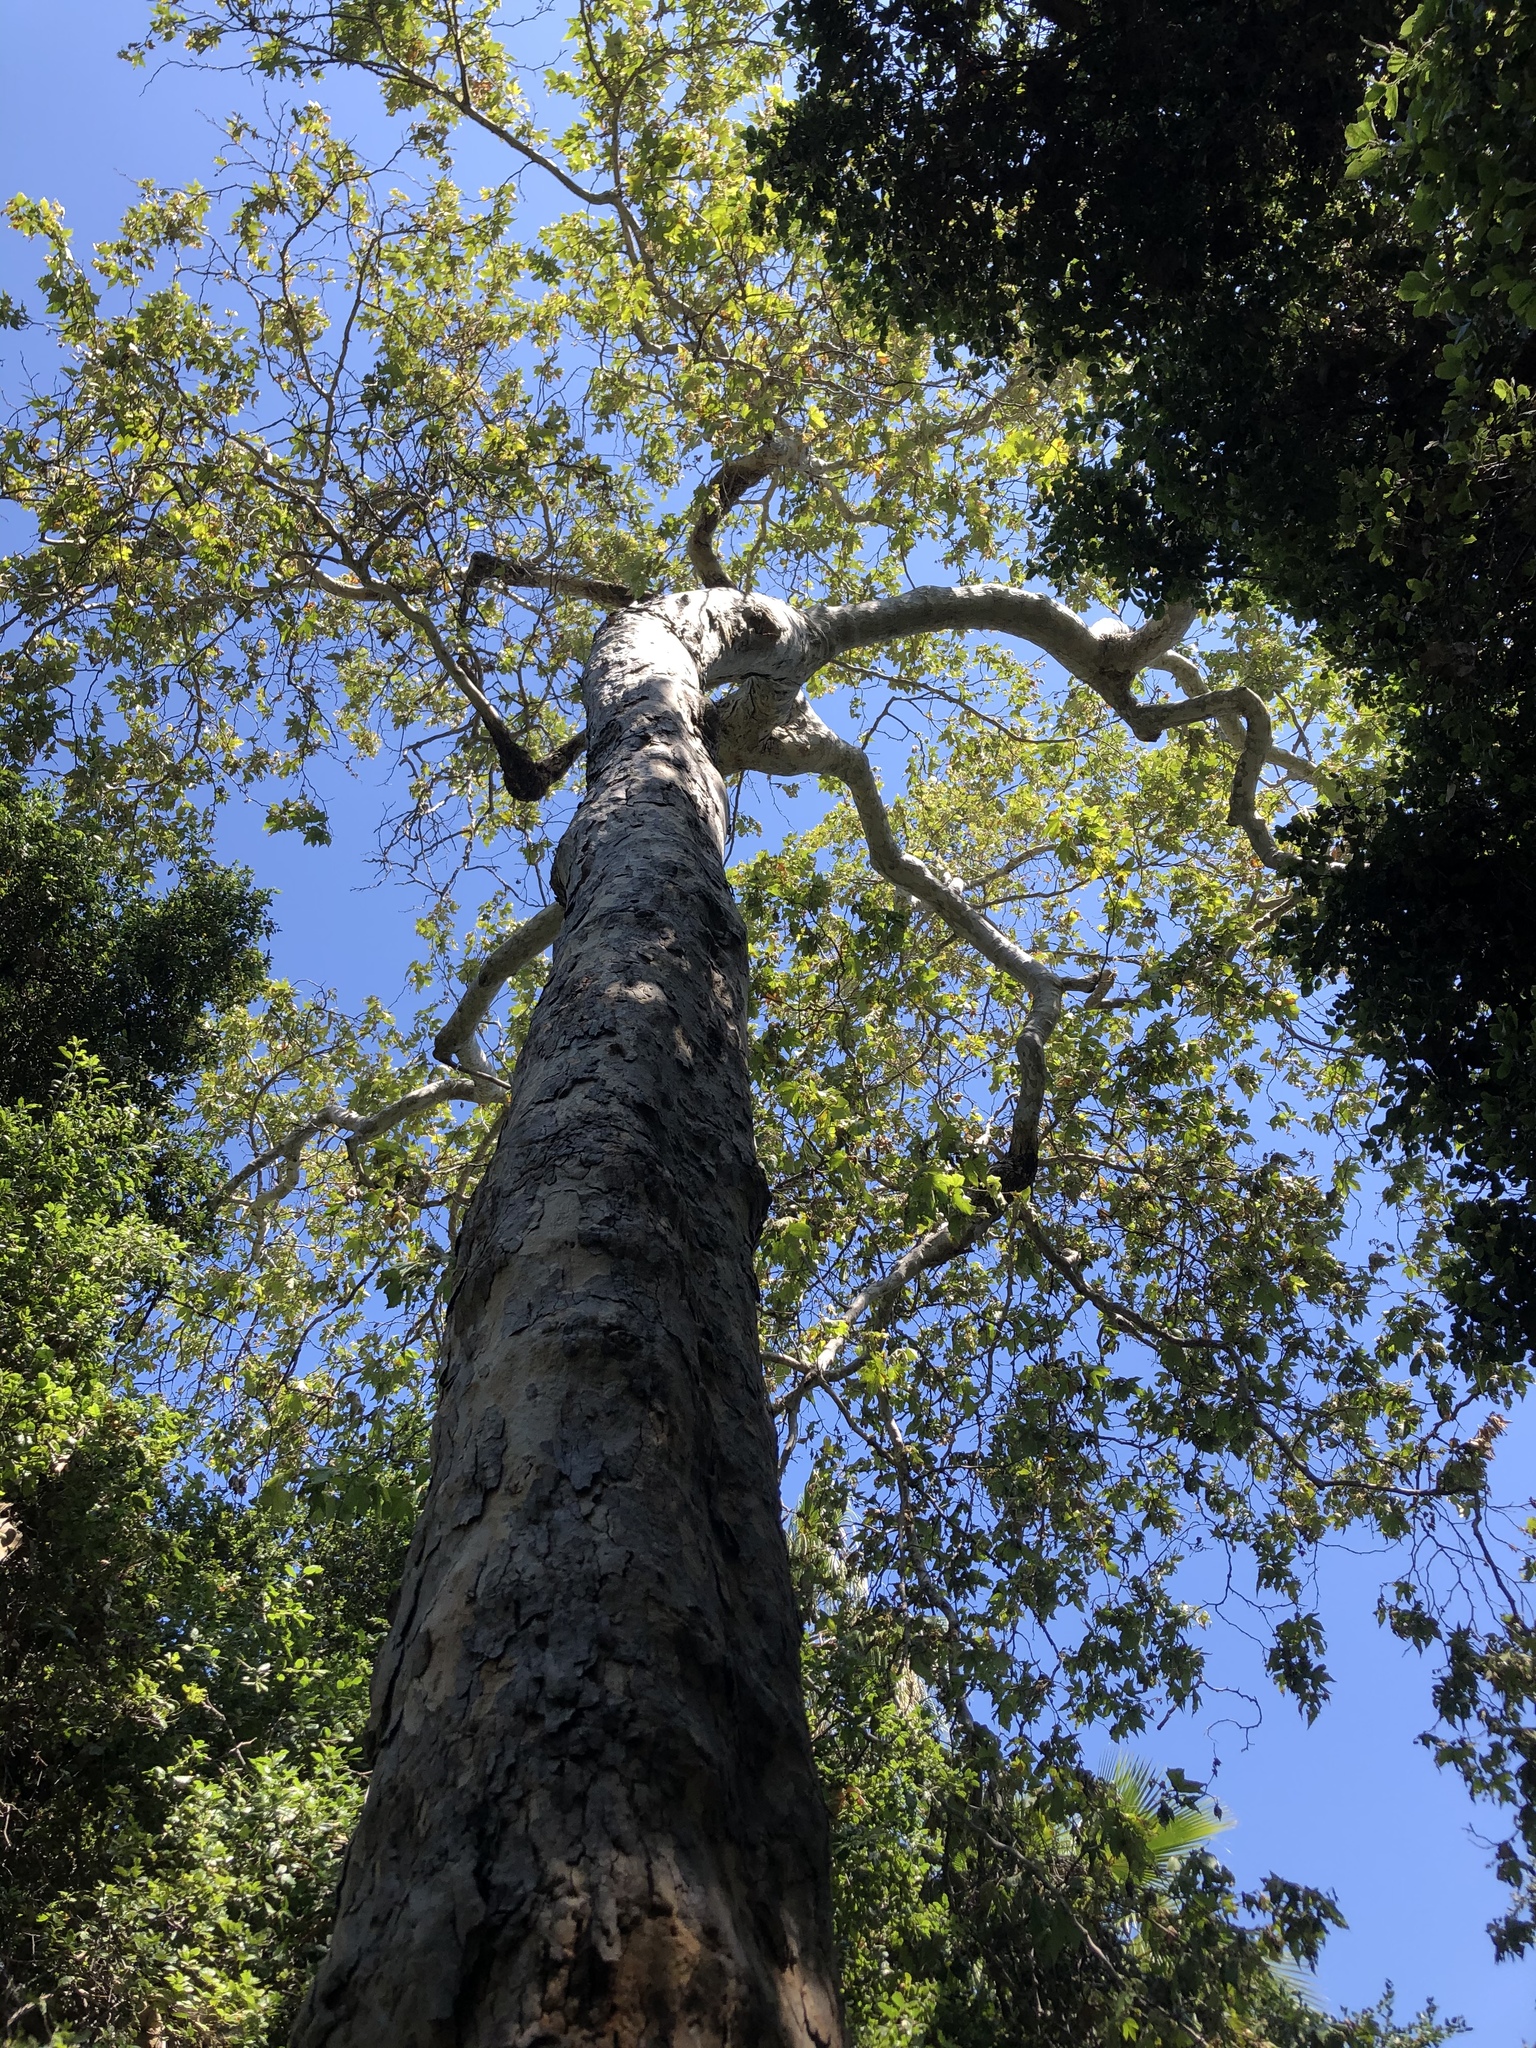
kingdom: Plantae
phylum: Tracheophyta
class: Magnoliopsida
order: Proteales
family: Platanaceae
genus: Platanus
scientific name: Platanus racemosa
